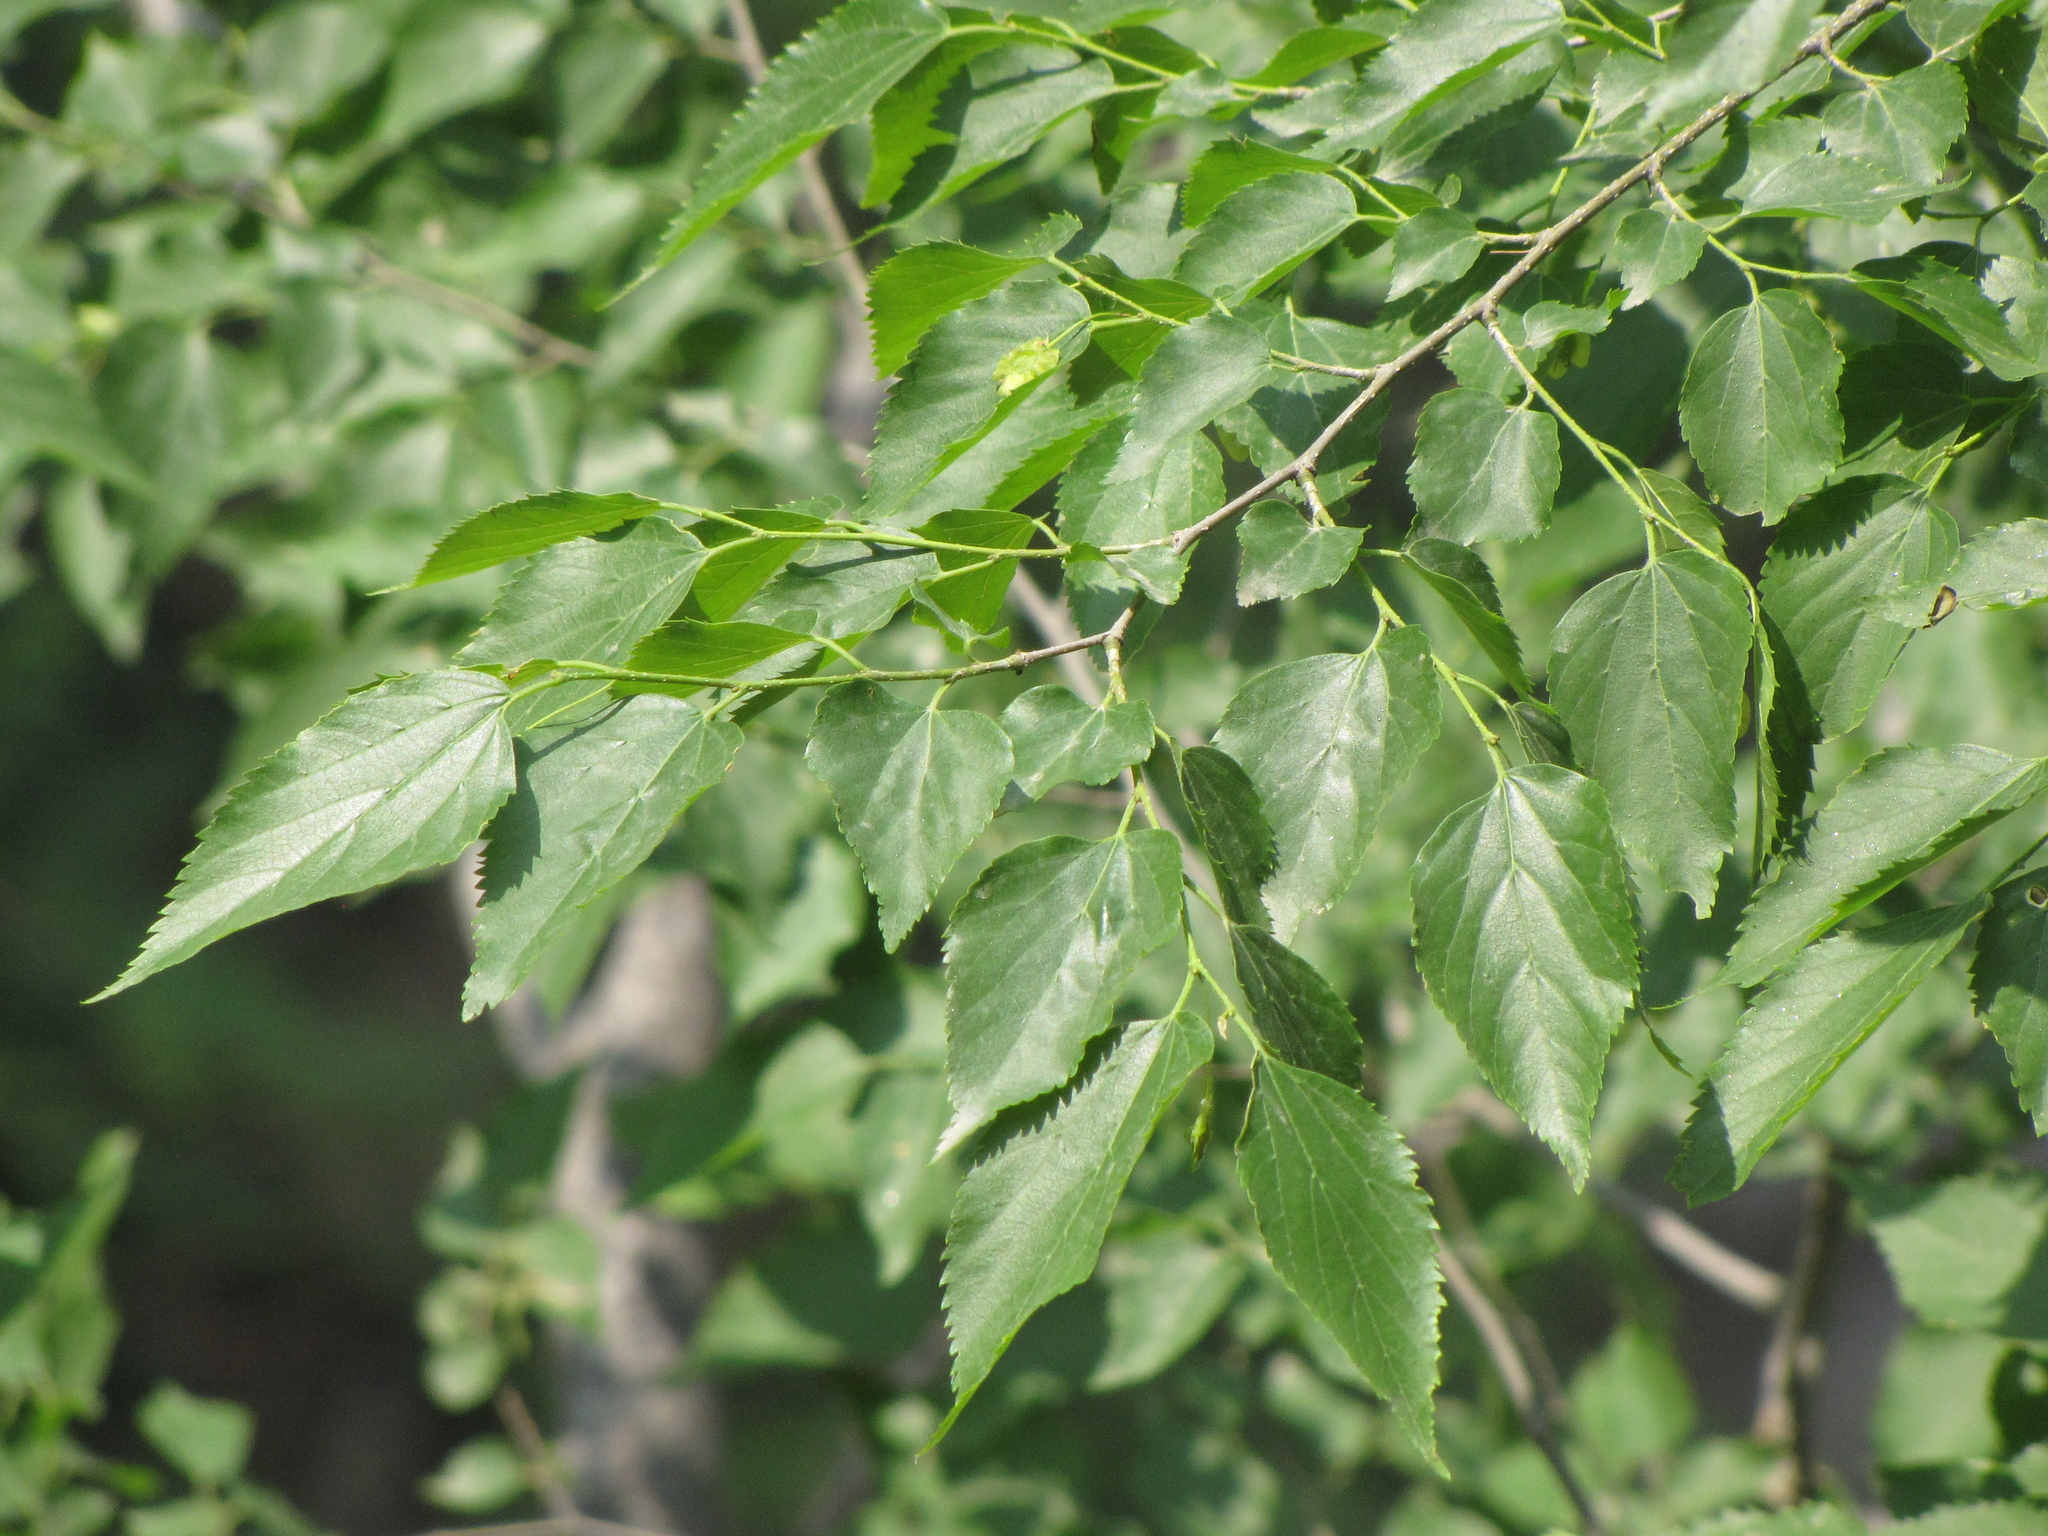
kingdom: Plantae
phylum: Tracheophyta
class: Magnoliopsida
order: Rosales
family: Cannabaceae
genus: Pteroceltis
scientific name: Pteroceltis tatarinowii
